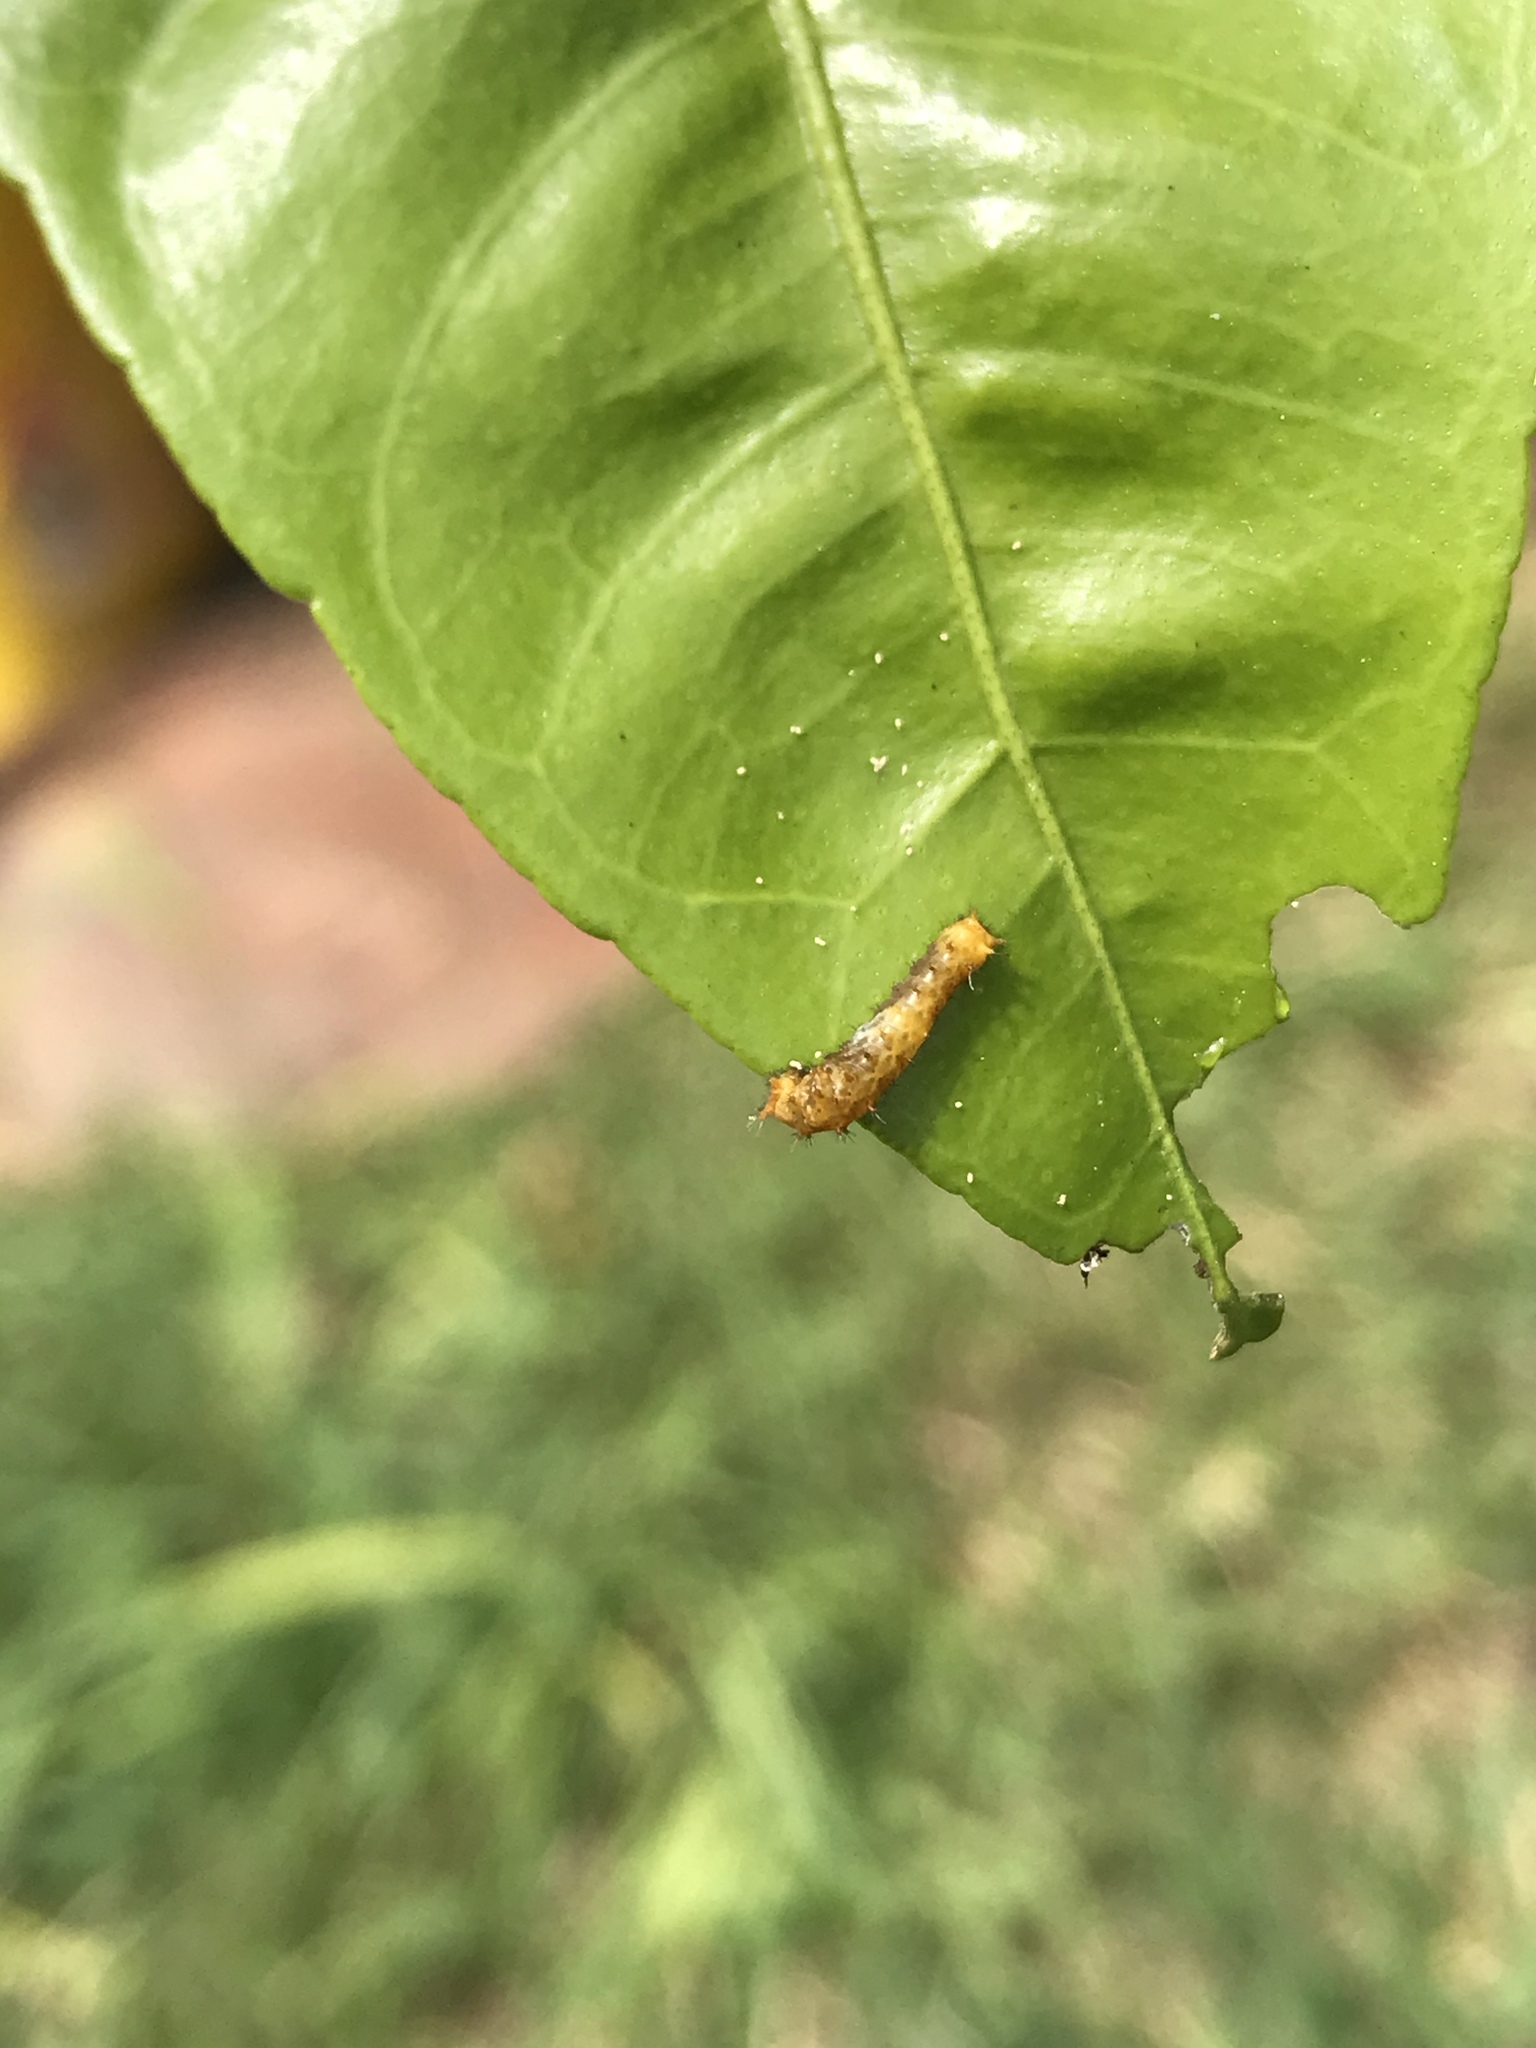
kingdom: Animalia
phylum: Arthropoda
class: Insecta
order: Lepidoptera
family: Papilionidae
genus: Papilio
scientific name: Papilio rumiko
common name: Western giant swallowtail
